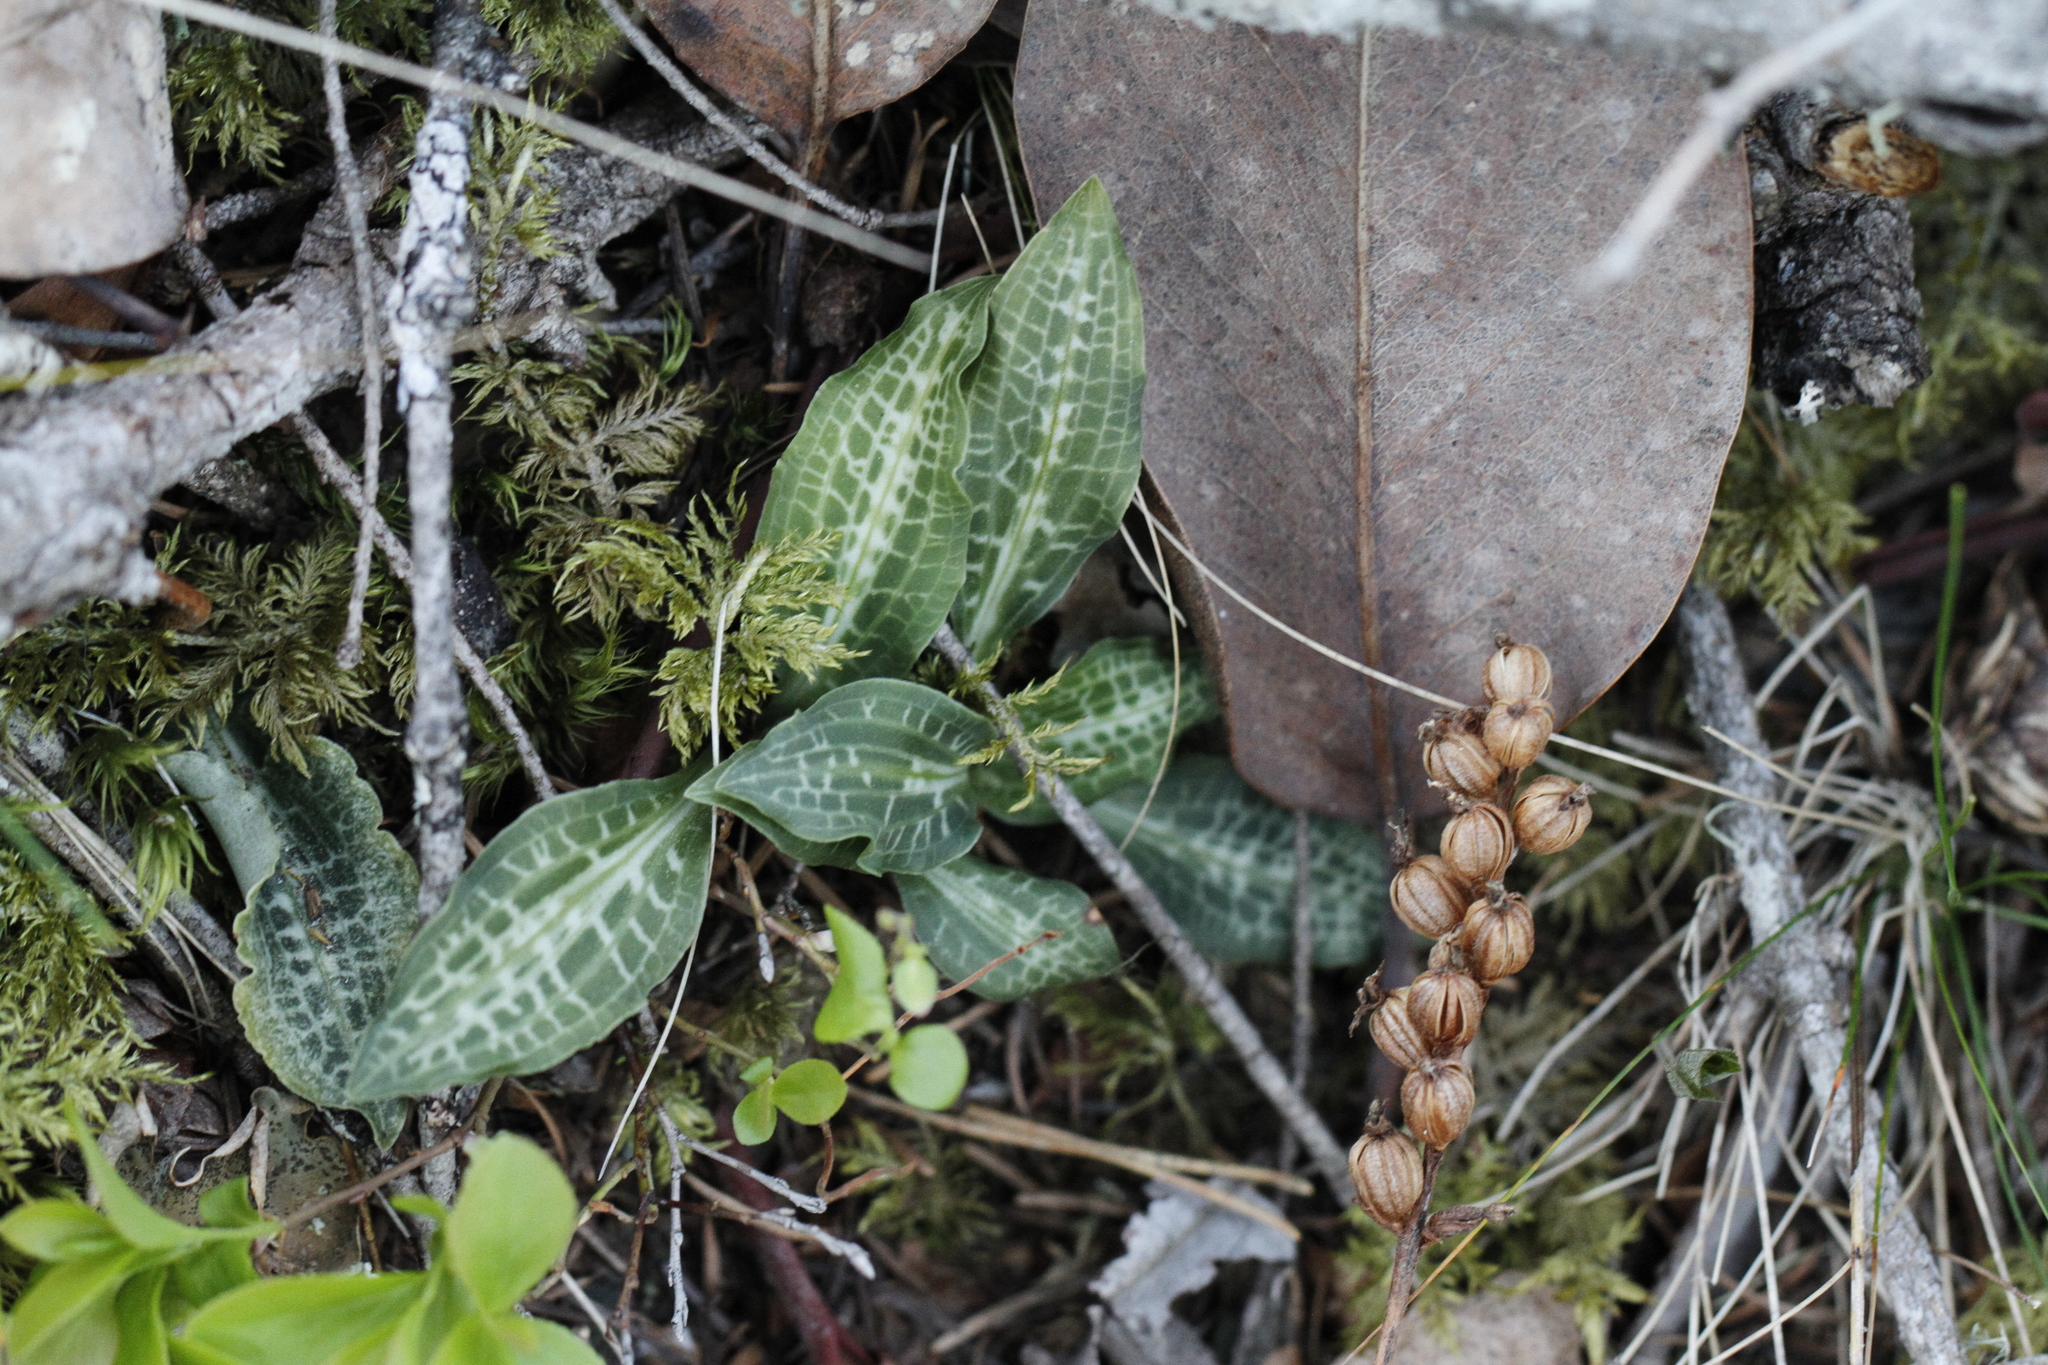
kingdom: Plantae
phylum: Tracheophyta
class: Liliopsida
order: Asparagales
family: Orchidaceae
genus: Goodyera
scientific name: Goodyera oblongifolia
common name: Giant rattlesnake-plantain
